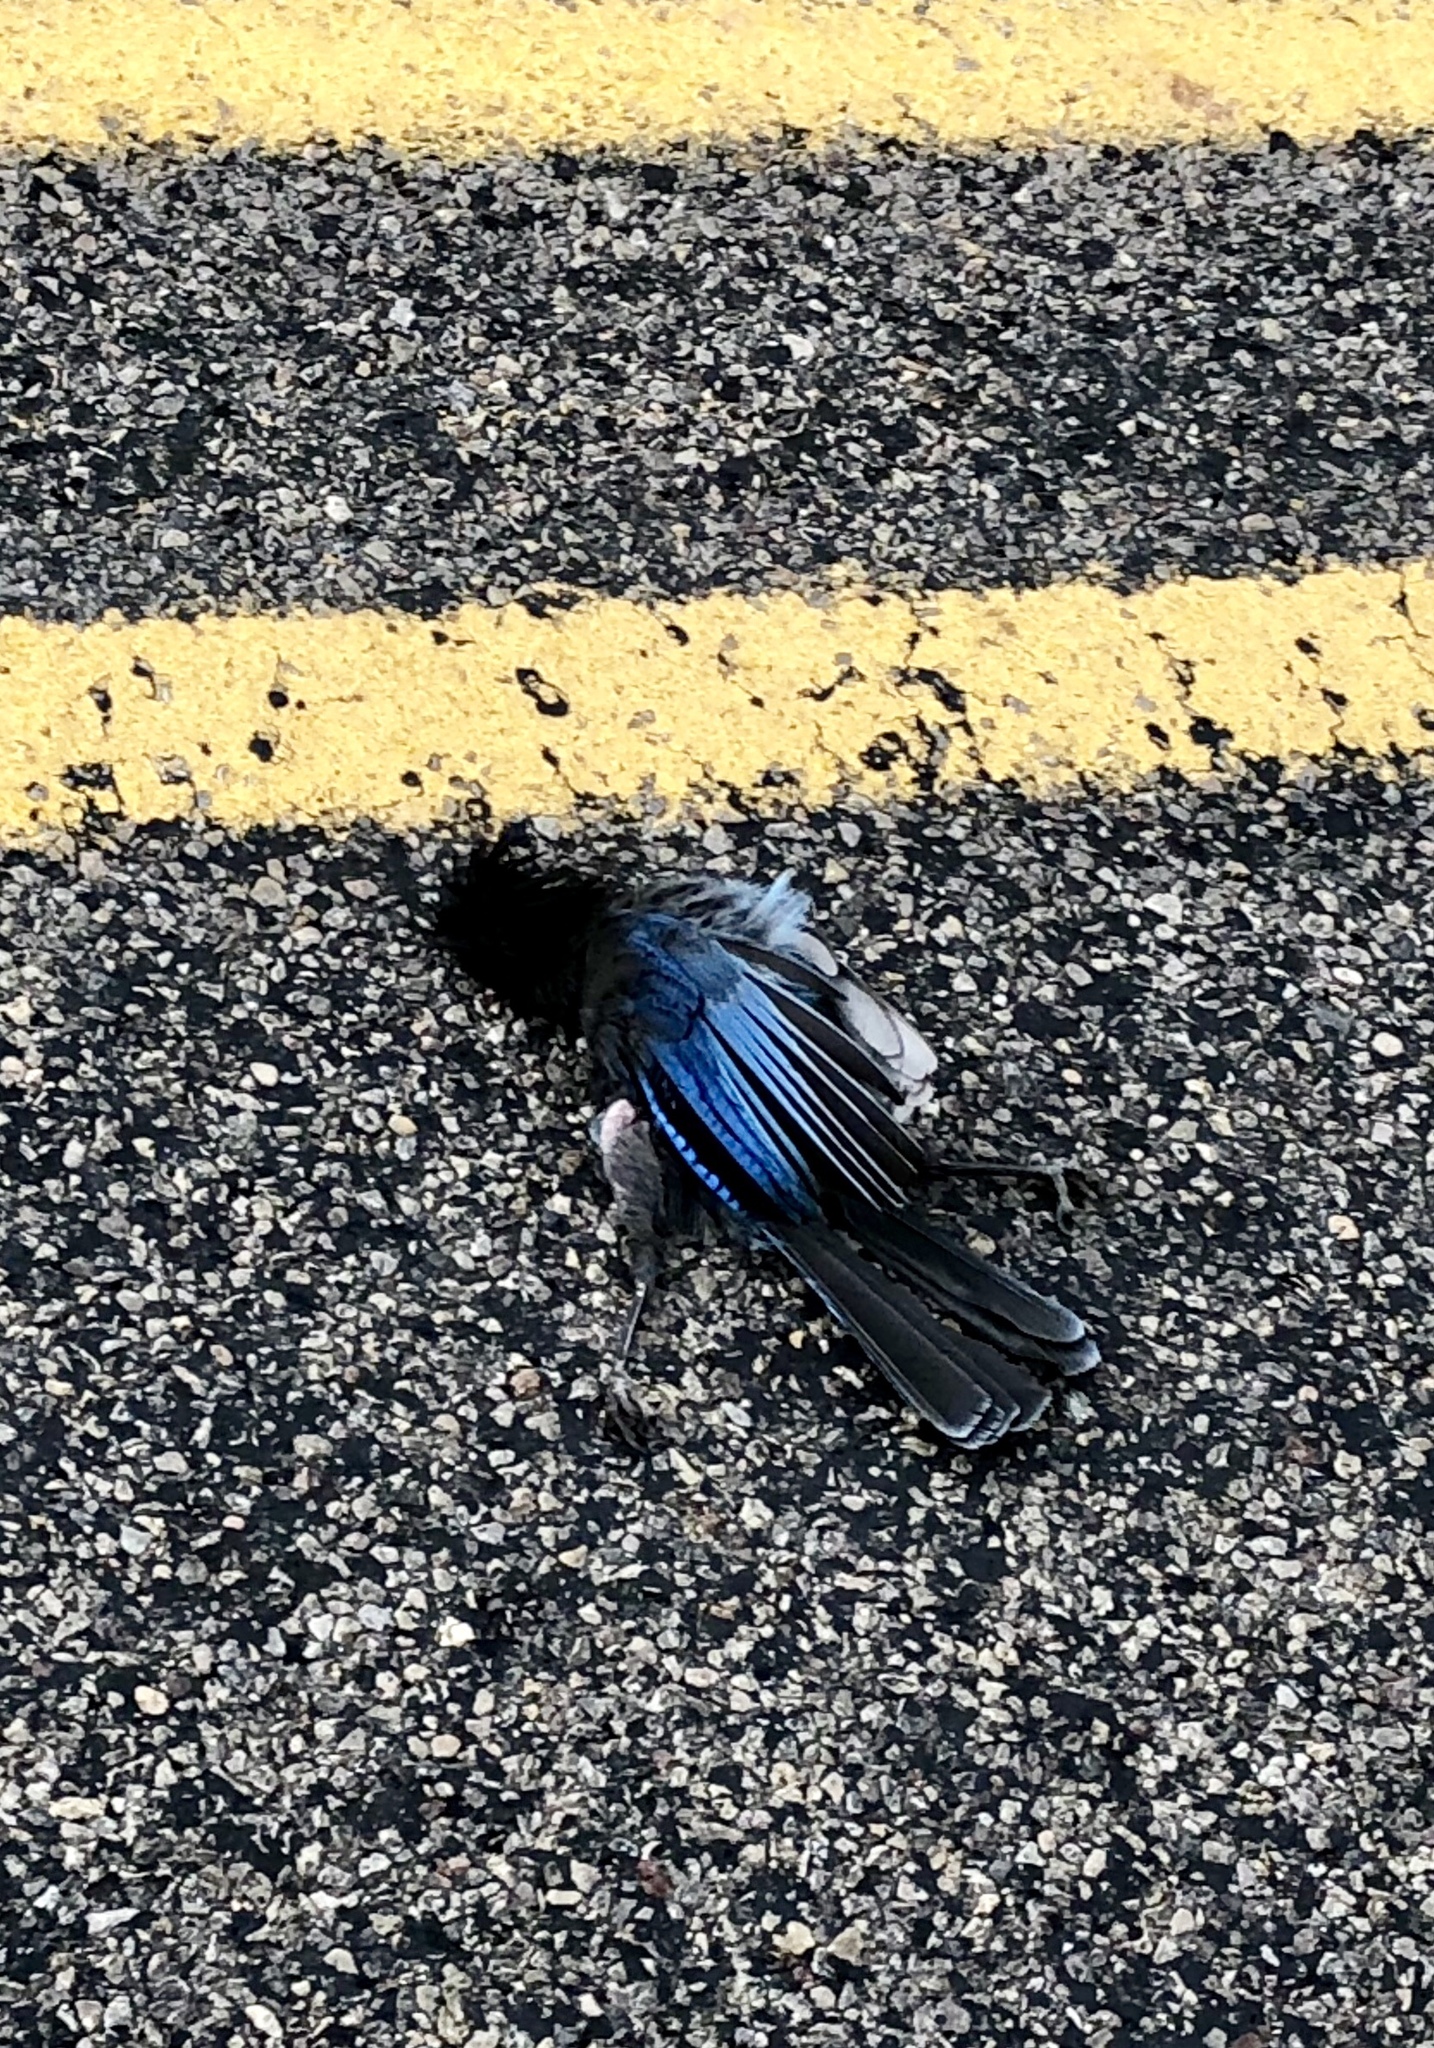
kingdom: Animalia
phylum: Chordata
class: Aves
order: Passeriformes
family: Corvidae
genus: Cyanocitta
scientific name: Cyanocitta stelleri
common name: Steller's jay
